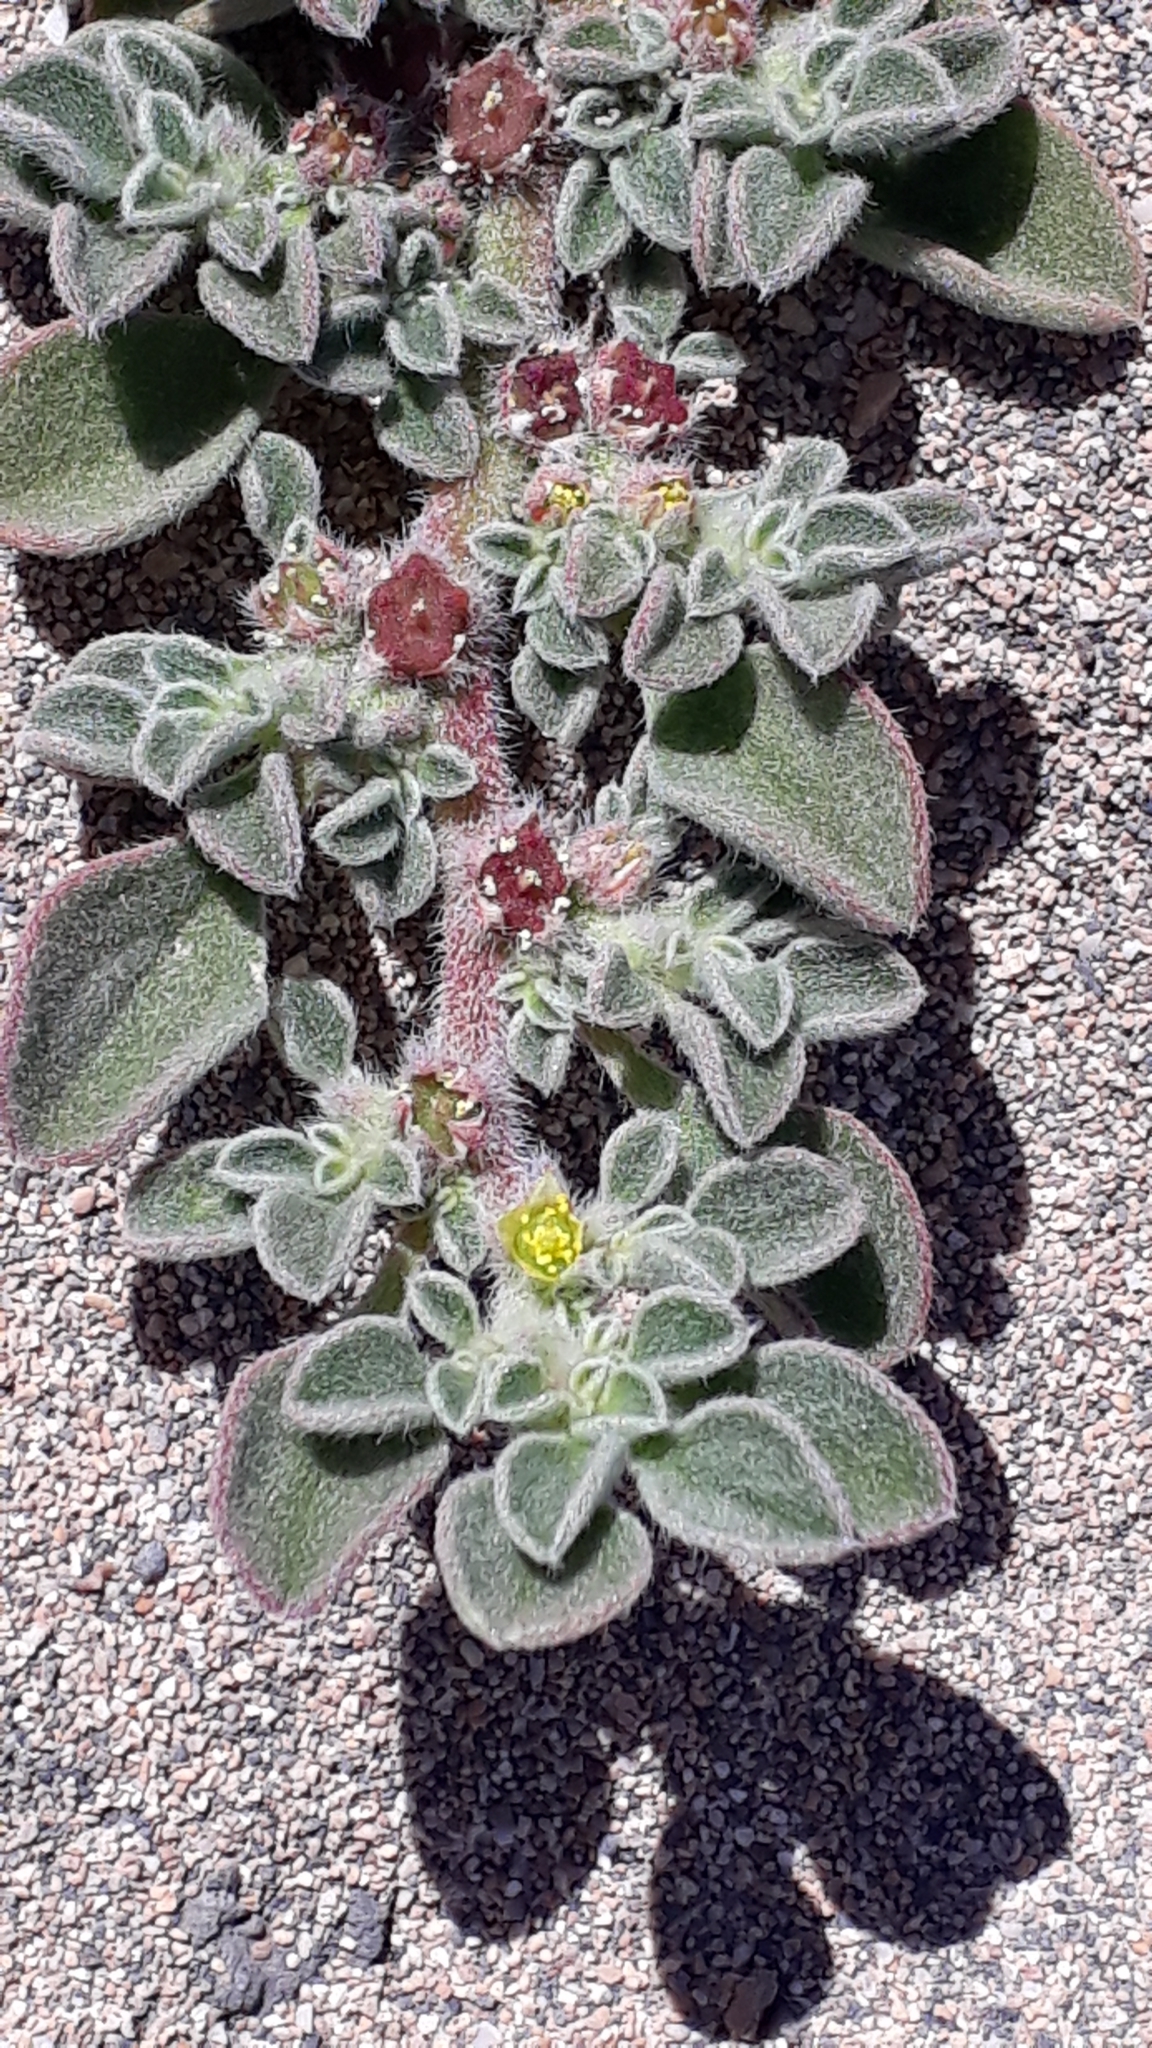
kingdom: Plantae
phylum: Tracheophyta
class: Magnoliopsida
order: Caryophyllales
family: Aizoaceae
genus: Aizoon
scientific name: Aizoon canariense
